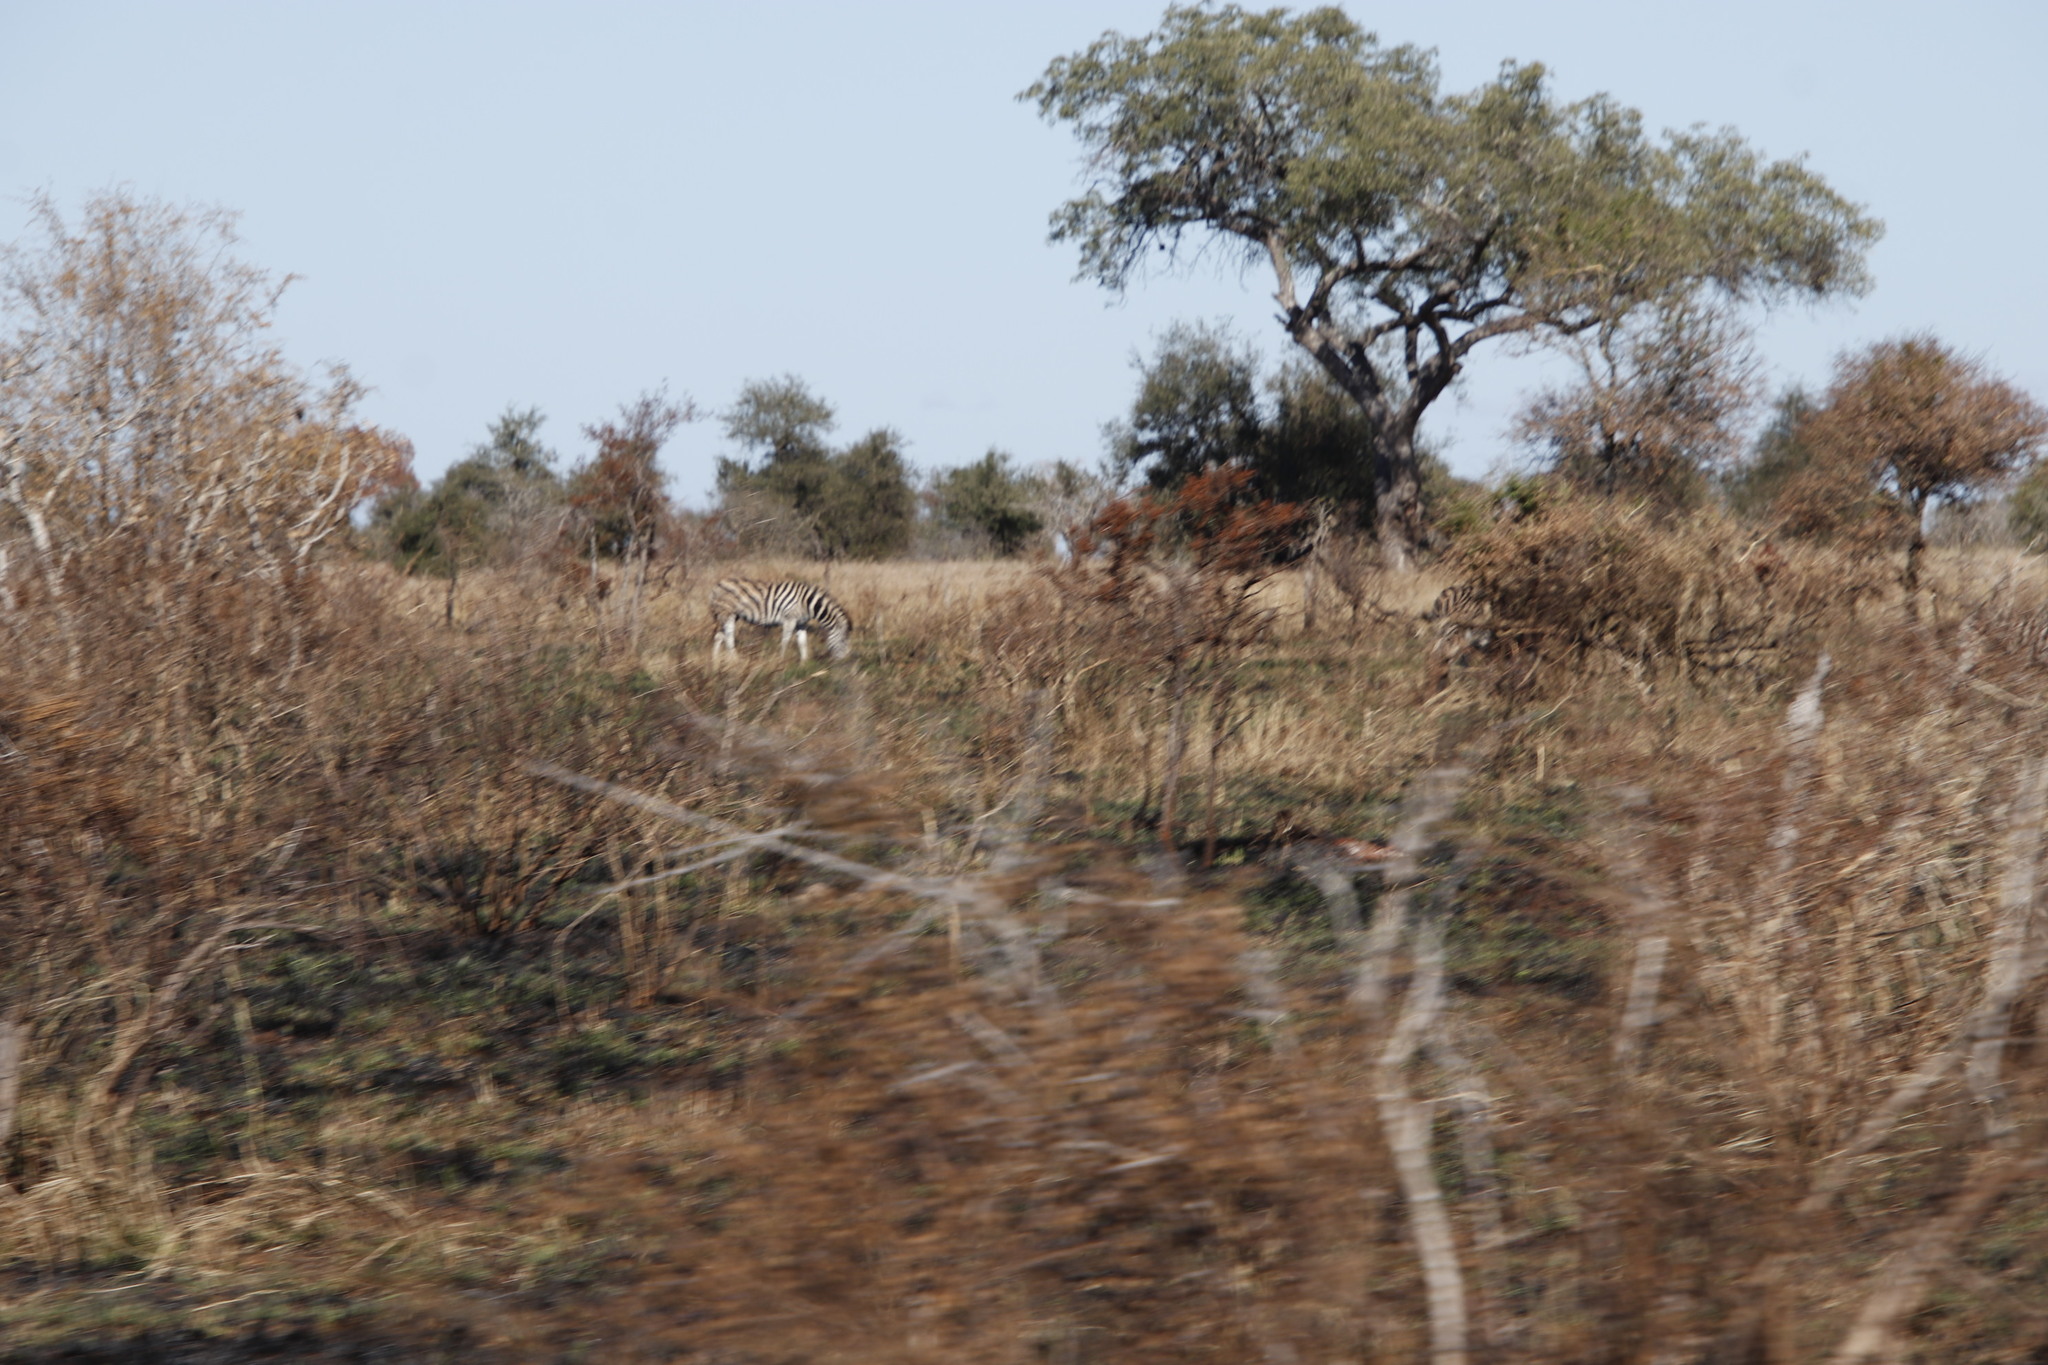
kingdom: Animalia
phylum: Chordata
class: Mammalia
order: Perissodactyla
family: Equidae
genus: Equus
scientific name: Equus quagga
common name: Plains zebra
